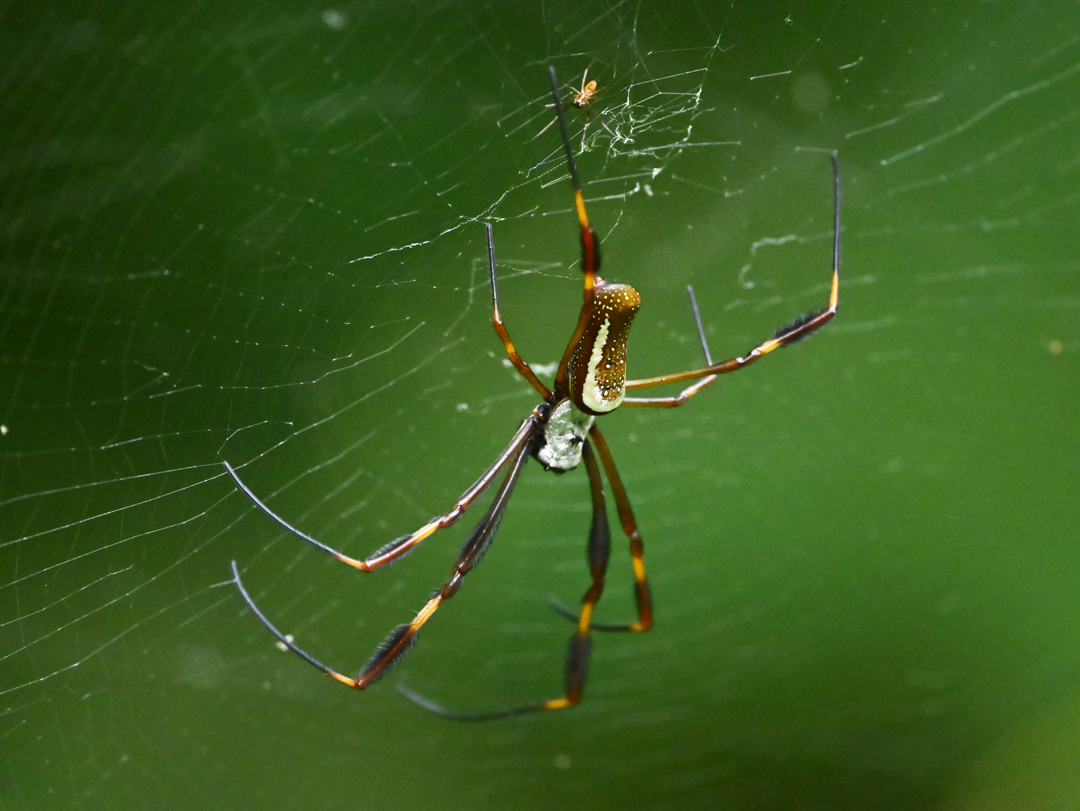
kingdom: Animalia
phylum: Arthropoda
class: Arachnida
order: Araneae
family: Araneidae
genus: Trichonephila
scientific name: Trichonephila clavipes
